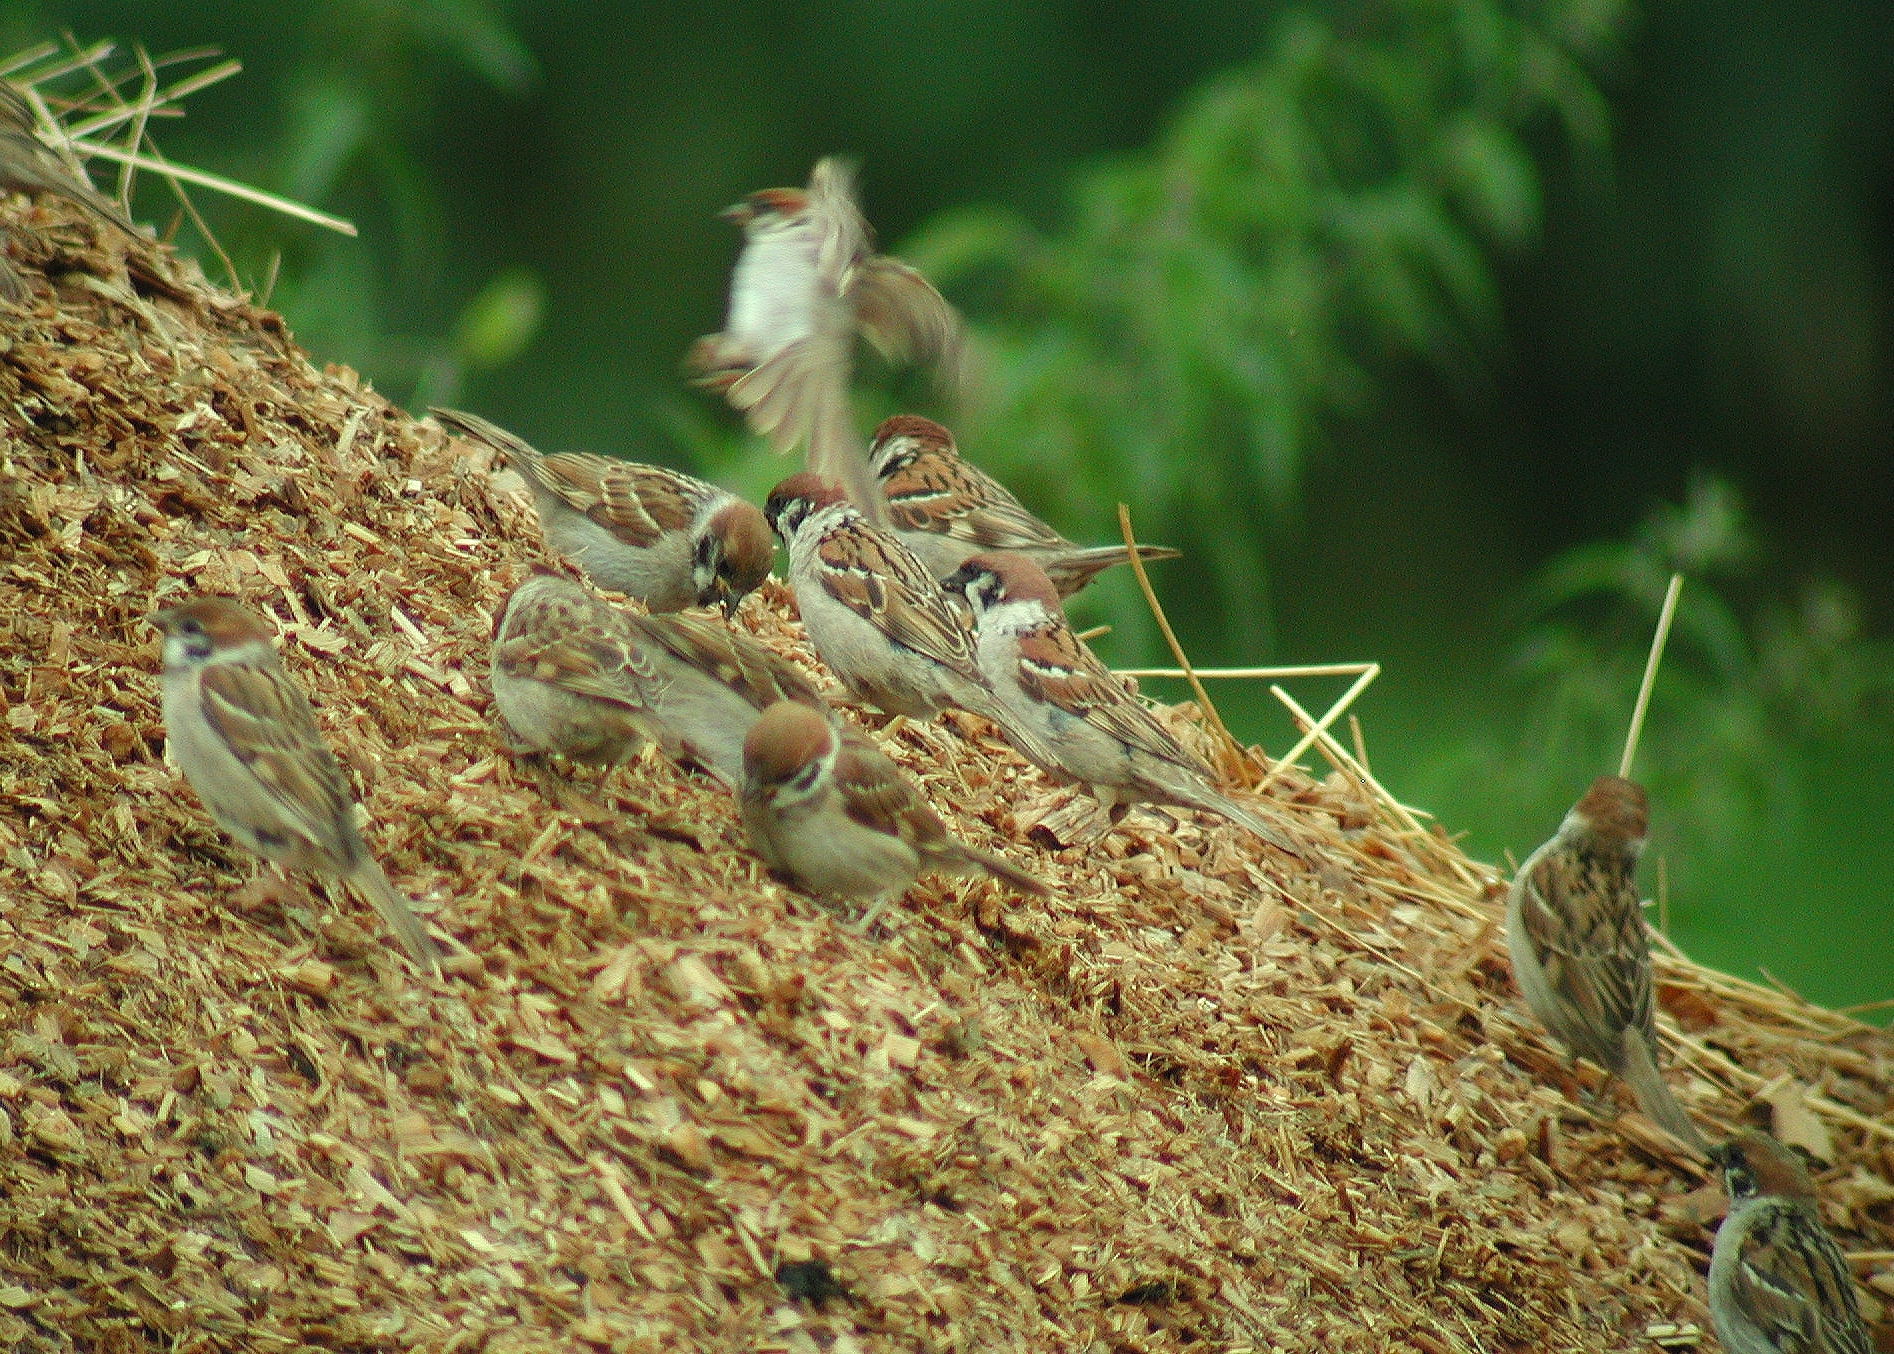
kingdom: Animalia
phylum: Chordata
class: Aves
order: Passeriformes
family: Passeridae
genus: Passer
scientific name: Passer montanus
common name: Eurasian tree sparrow
